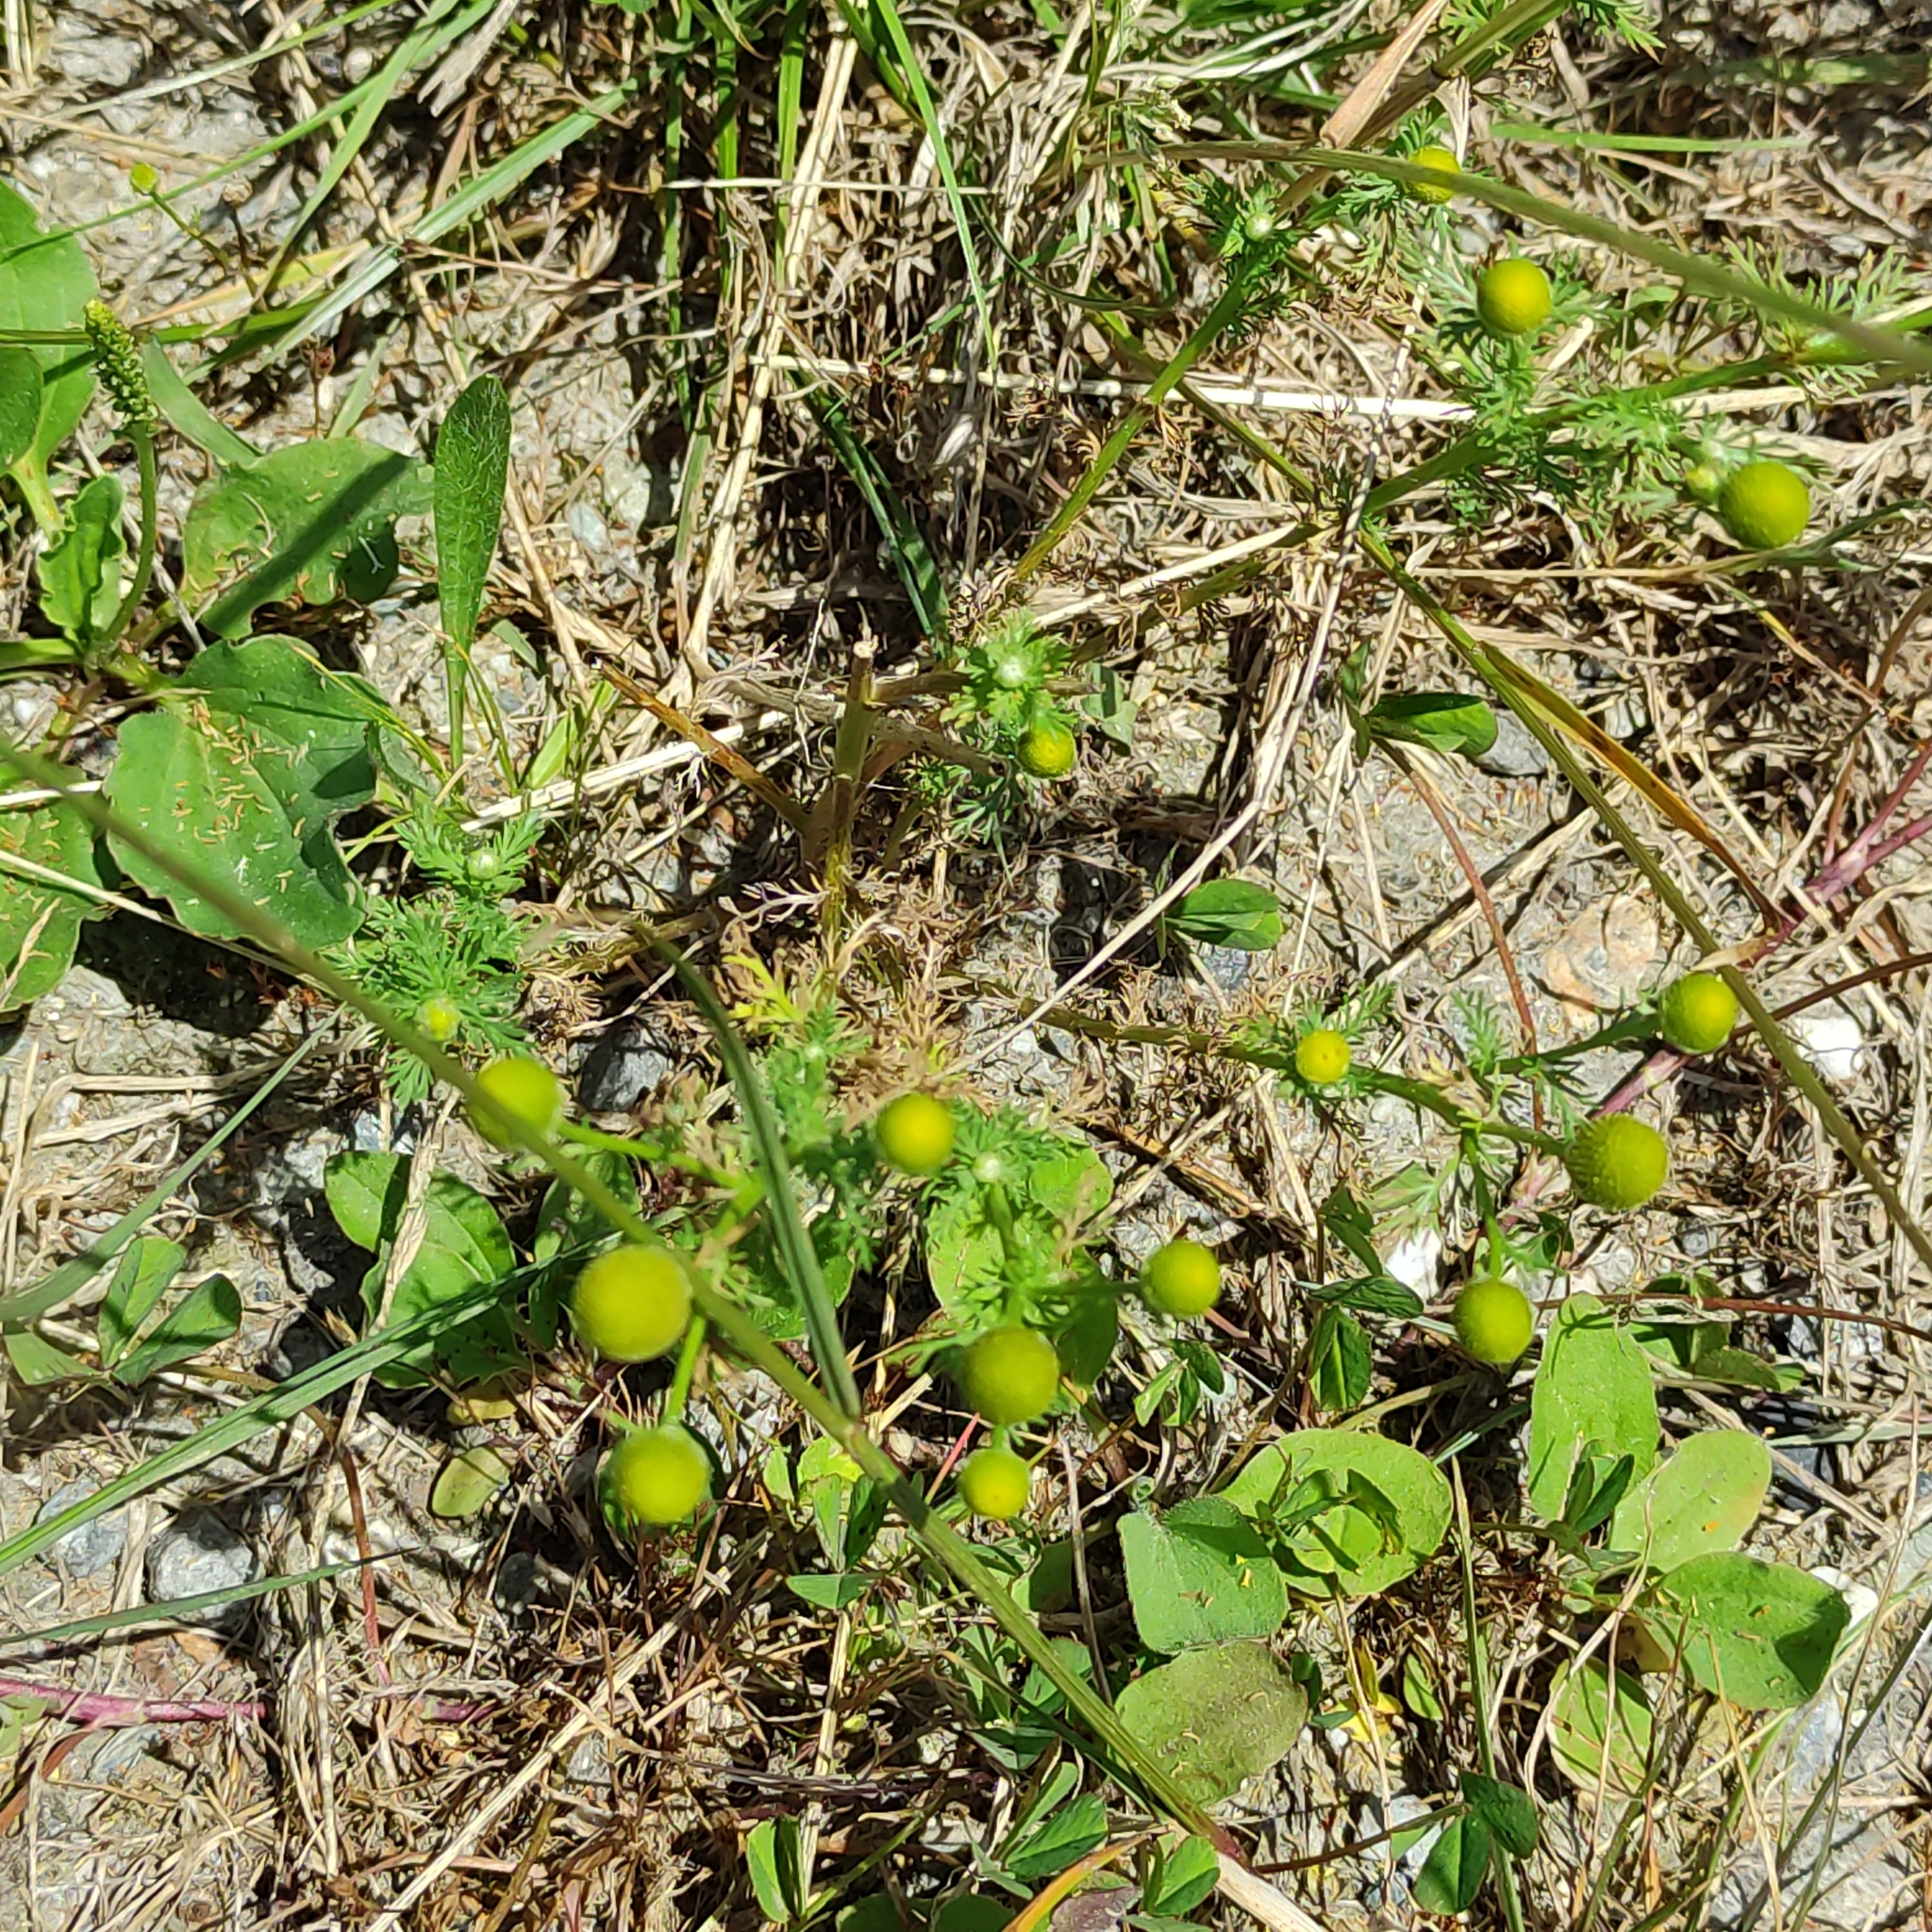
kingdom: Plantae
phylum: Tracheophyta
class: Magnoliopsida
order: Asterales
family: Asteraceae
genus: Matricaria
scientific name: Matricaria discoidea
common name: Disc mayweed
